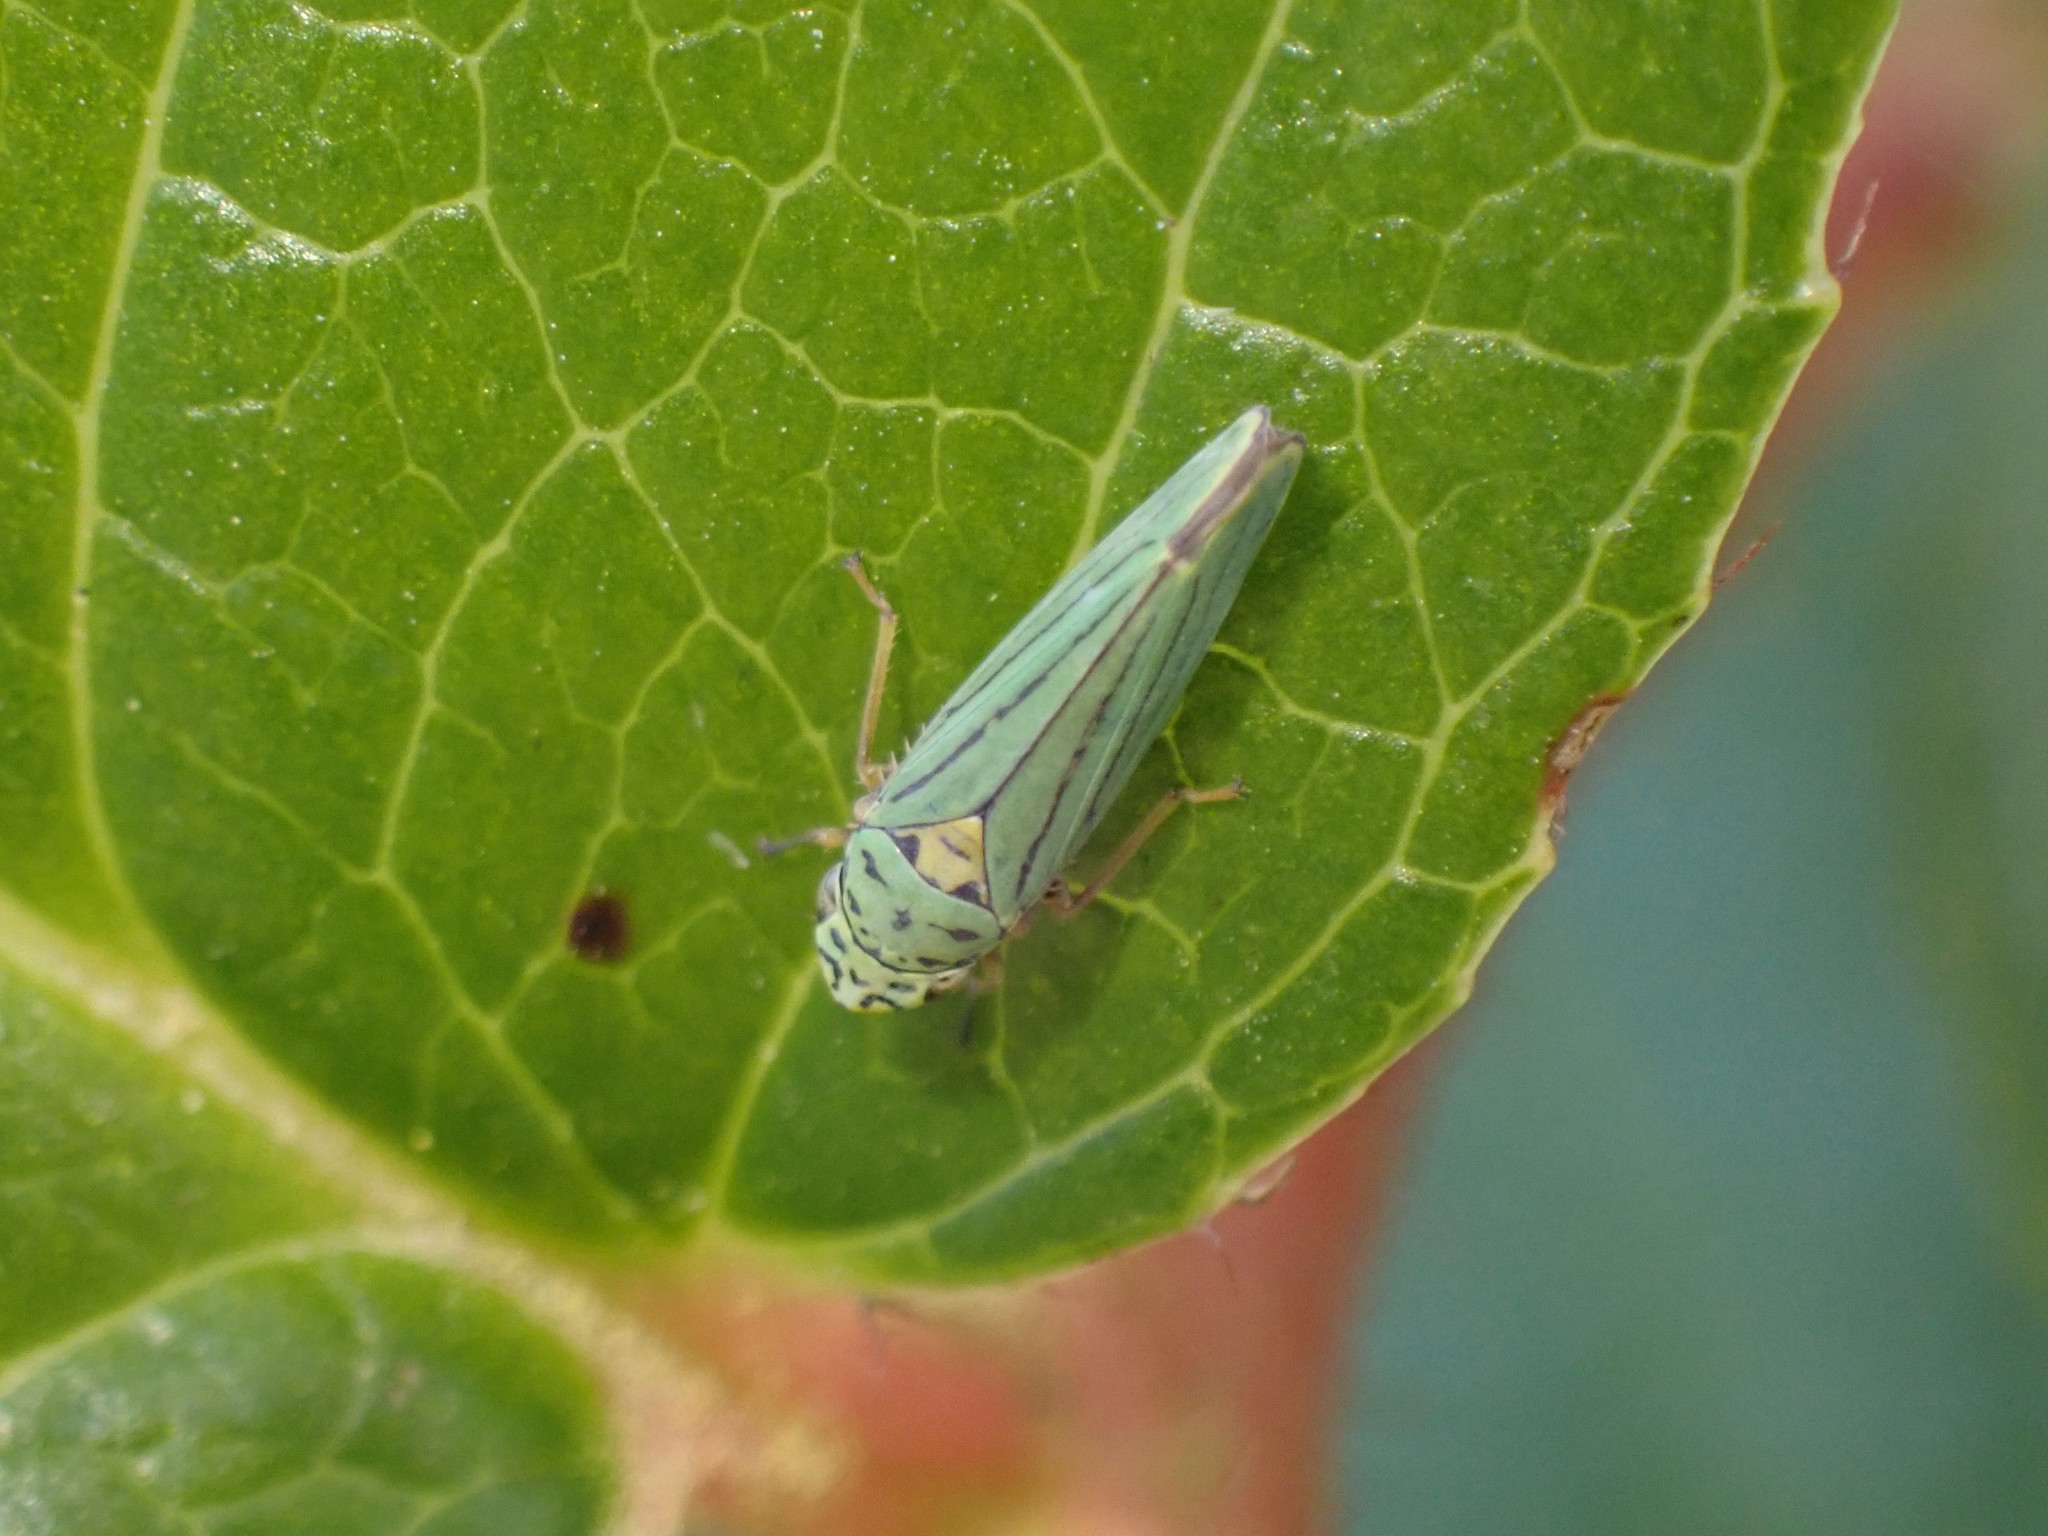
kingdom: Animalia
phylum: Arthropoda
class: Insecta
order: Hemiptera
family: Cicadellidae
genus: Graphocephala
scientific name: Graphocephala atropunctata
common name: Blue-green sharpshooter
